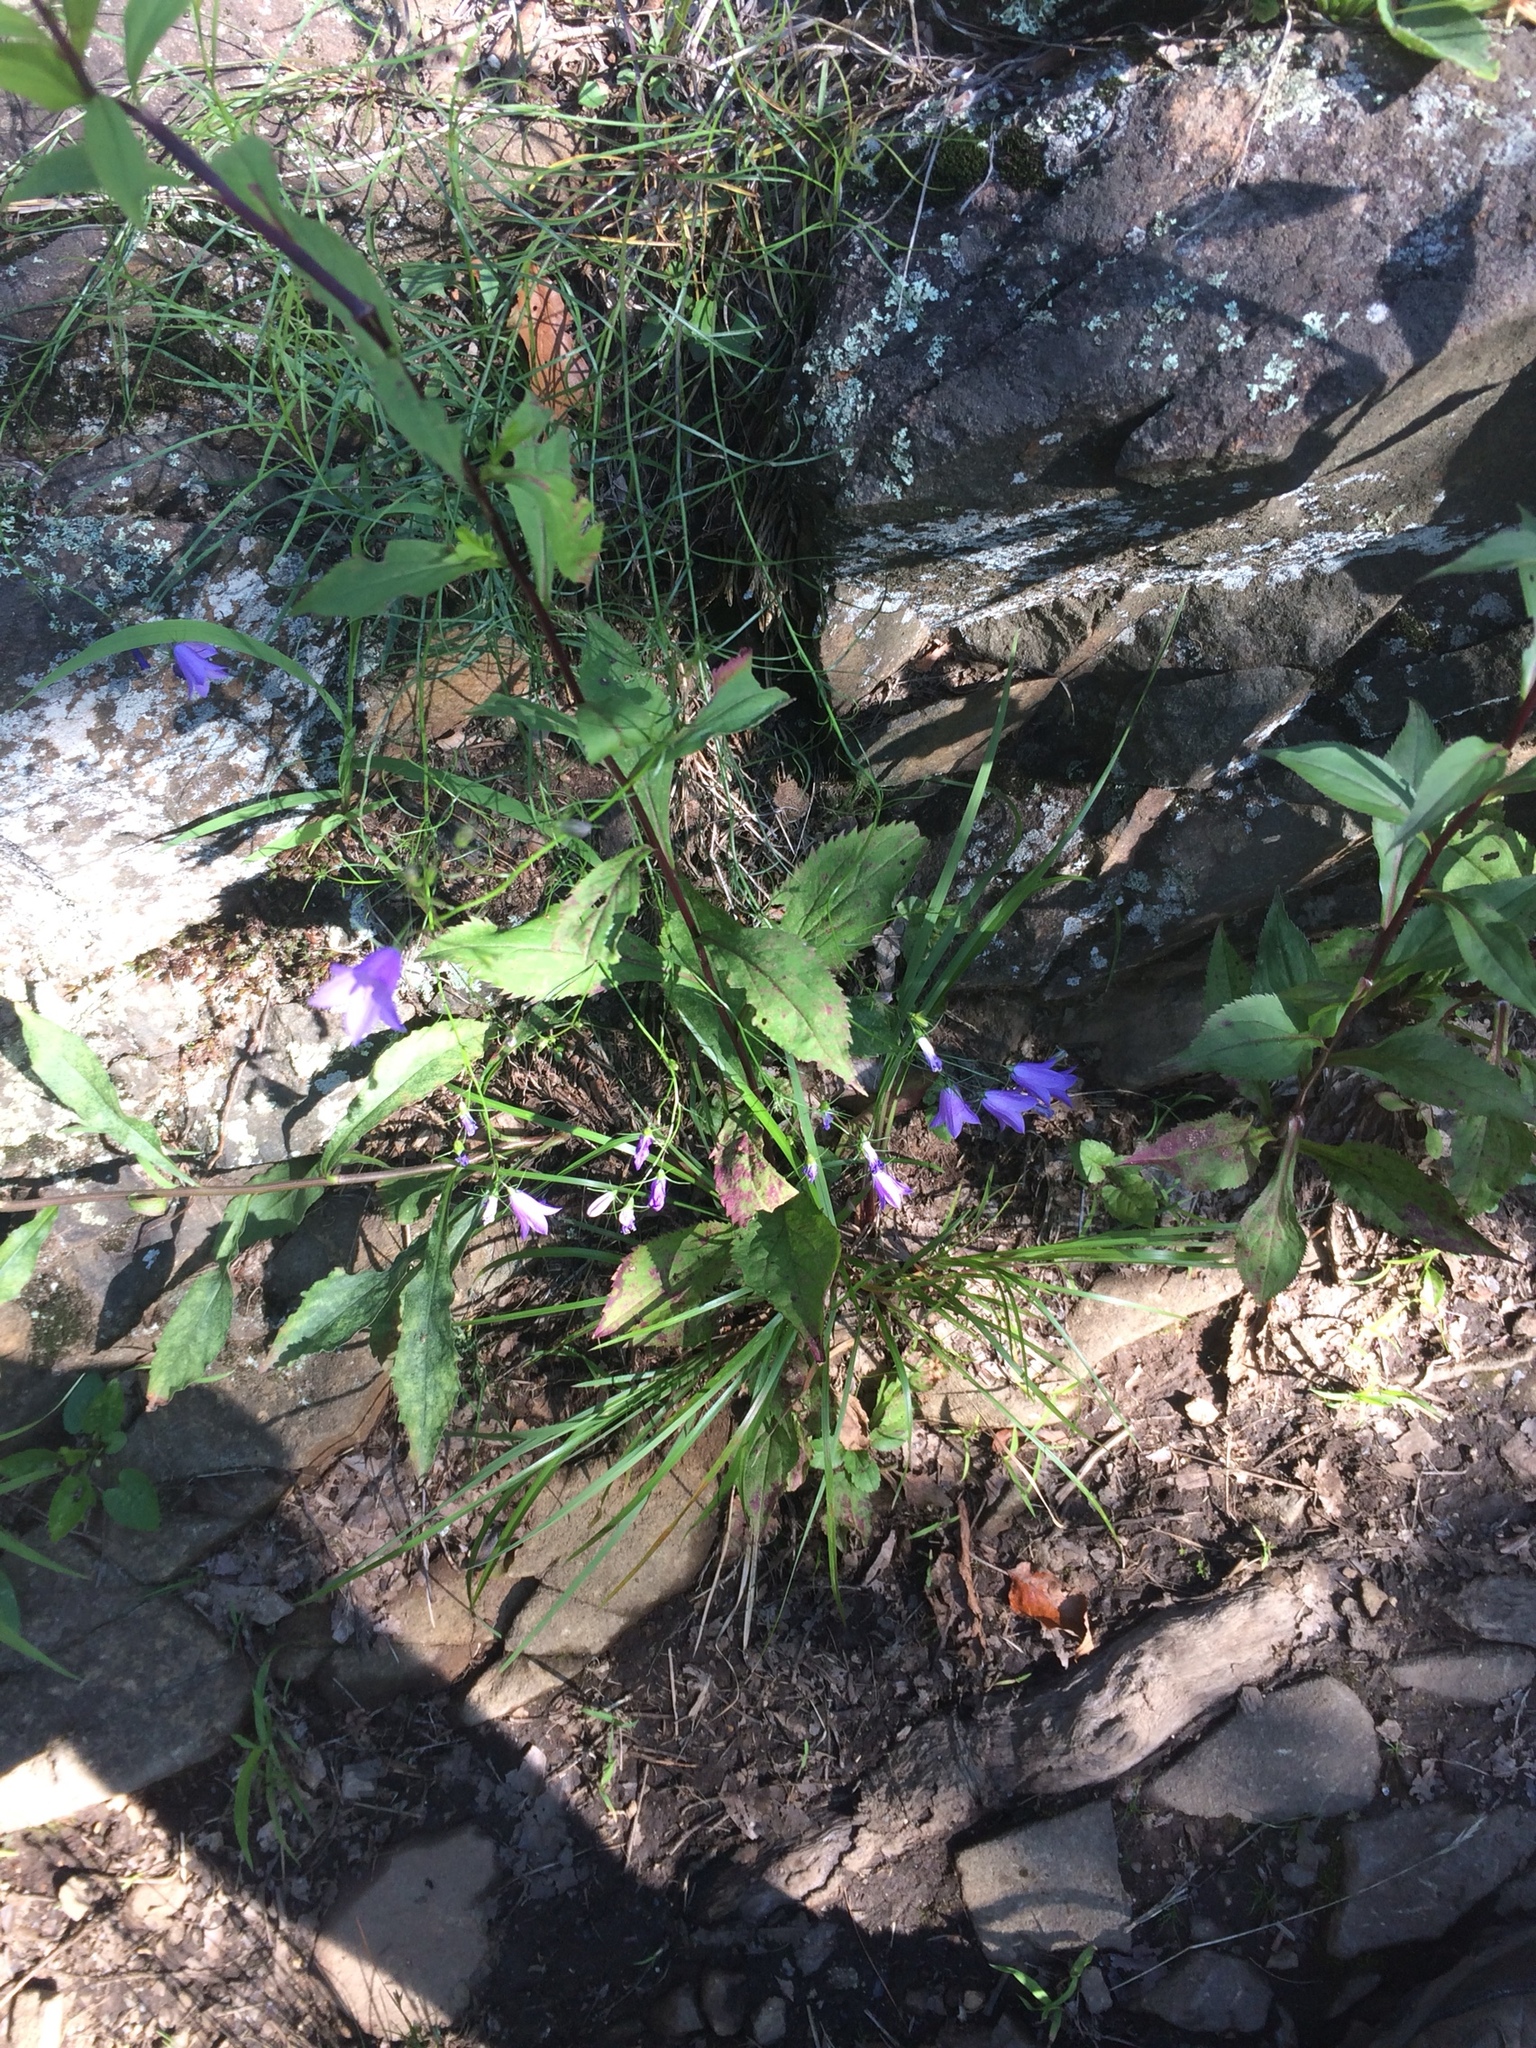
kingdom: Plantae
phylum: Tracheophyta
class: Magnoliopsida
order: Asterales
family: Campanulaceae
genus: Campanula
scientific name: Campanula intercedens
